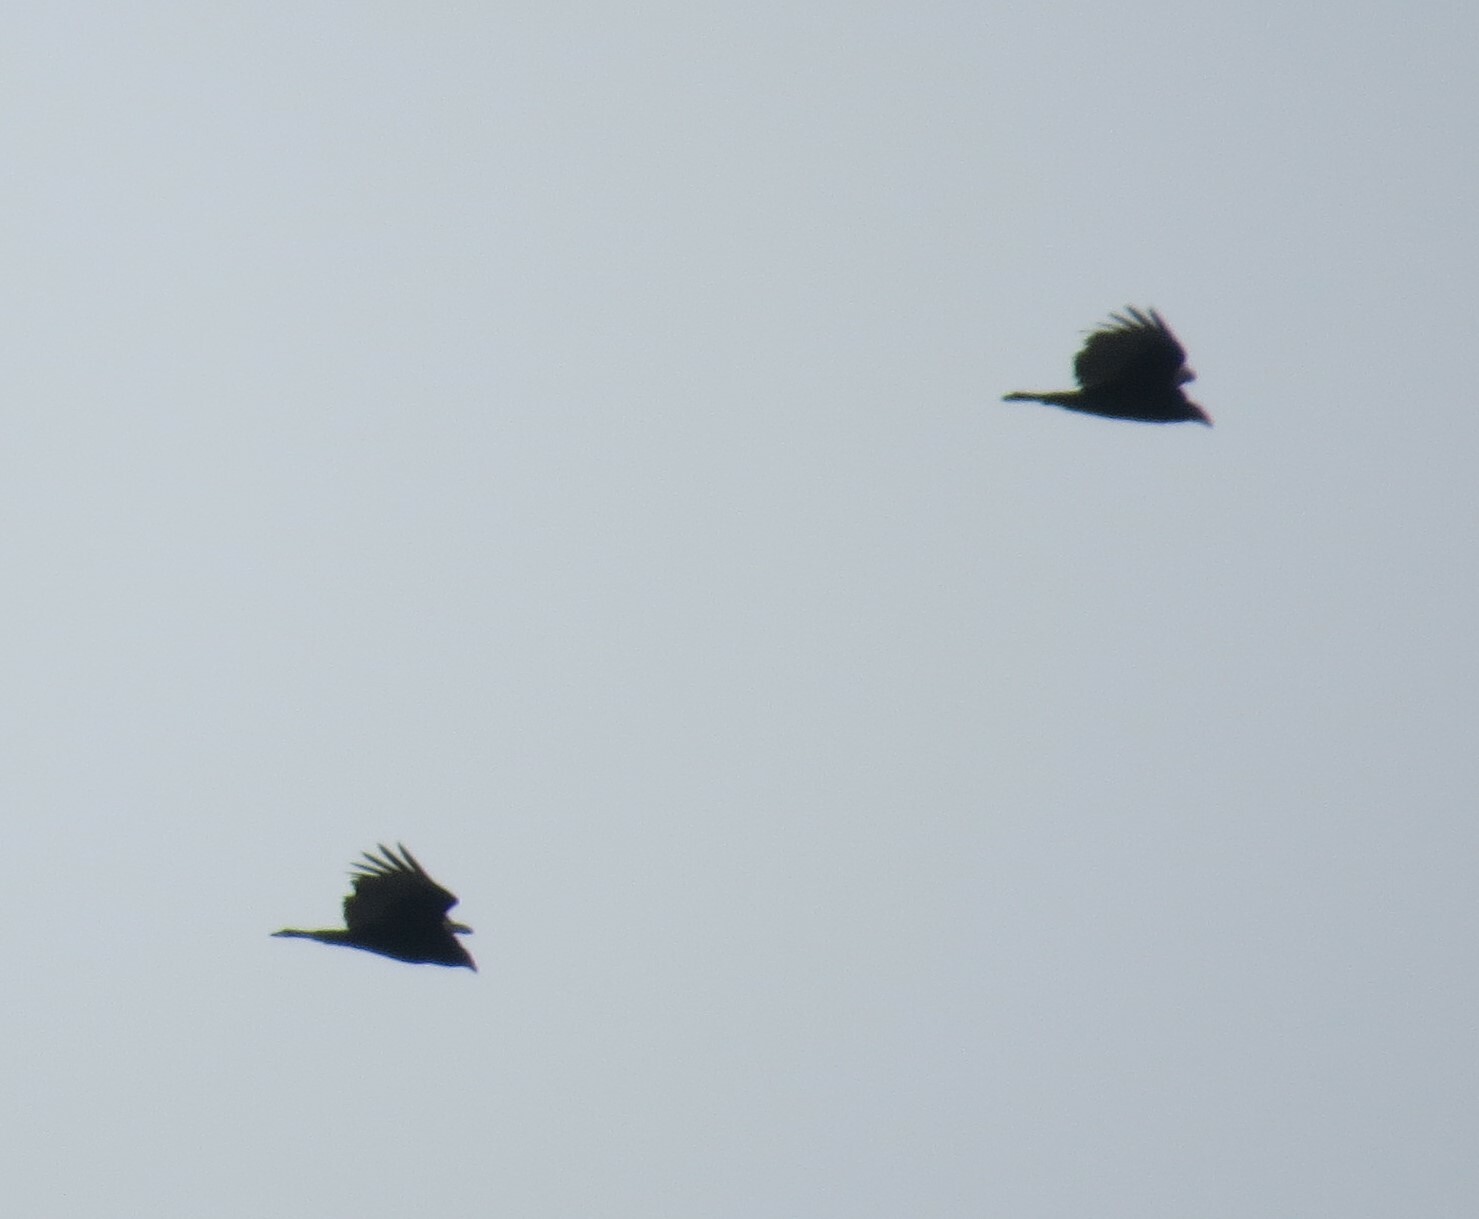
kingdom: Animalia
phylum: Chordata
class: Aves
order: Accipitriformes
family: Cathartidae
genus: Cathartes
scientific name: Cathartes aura
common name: Turkey vulture
